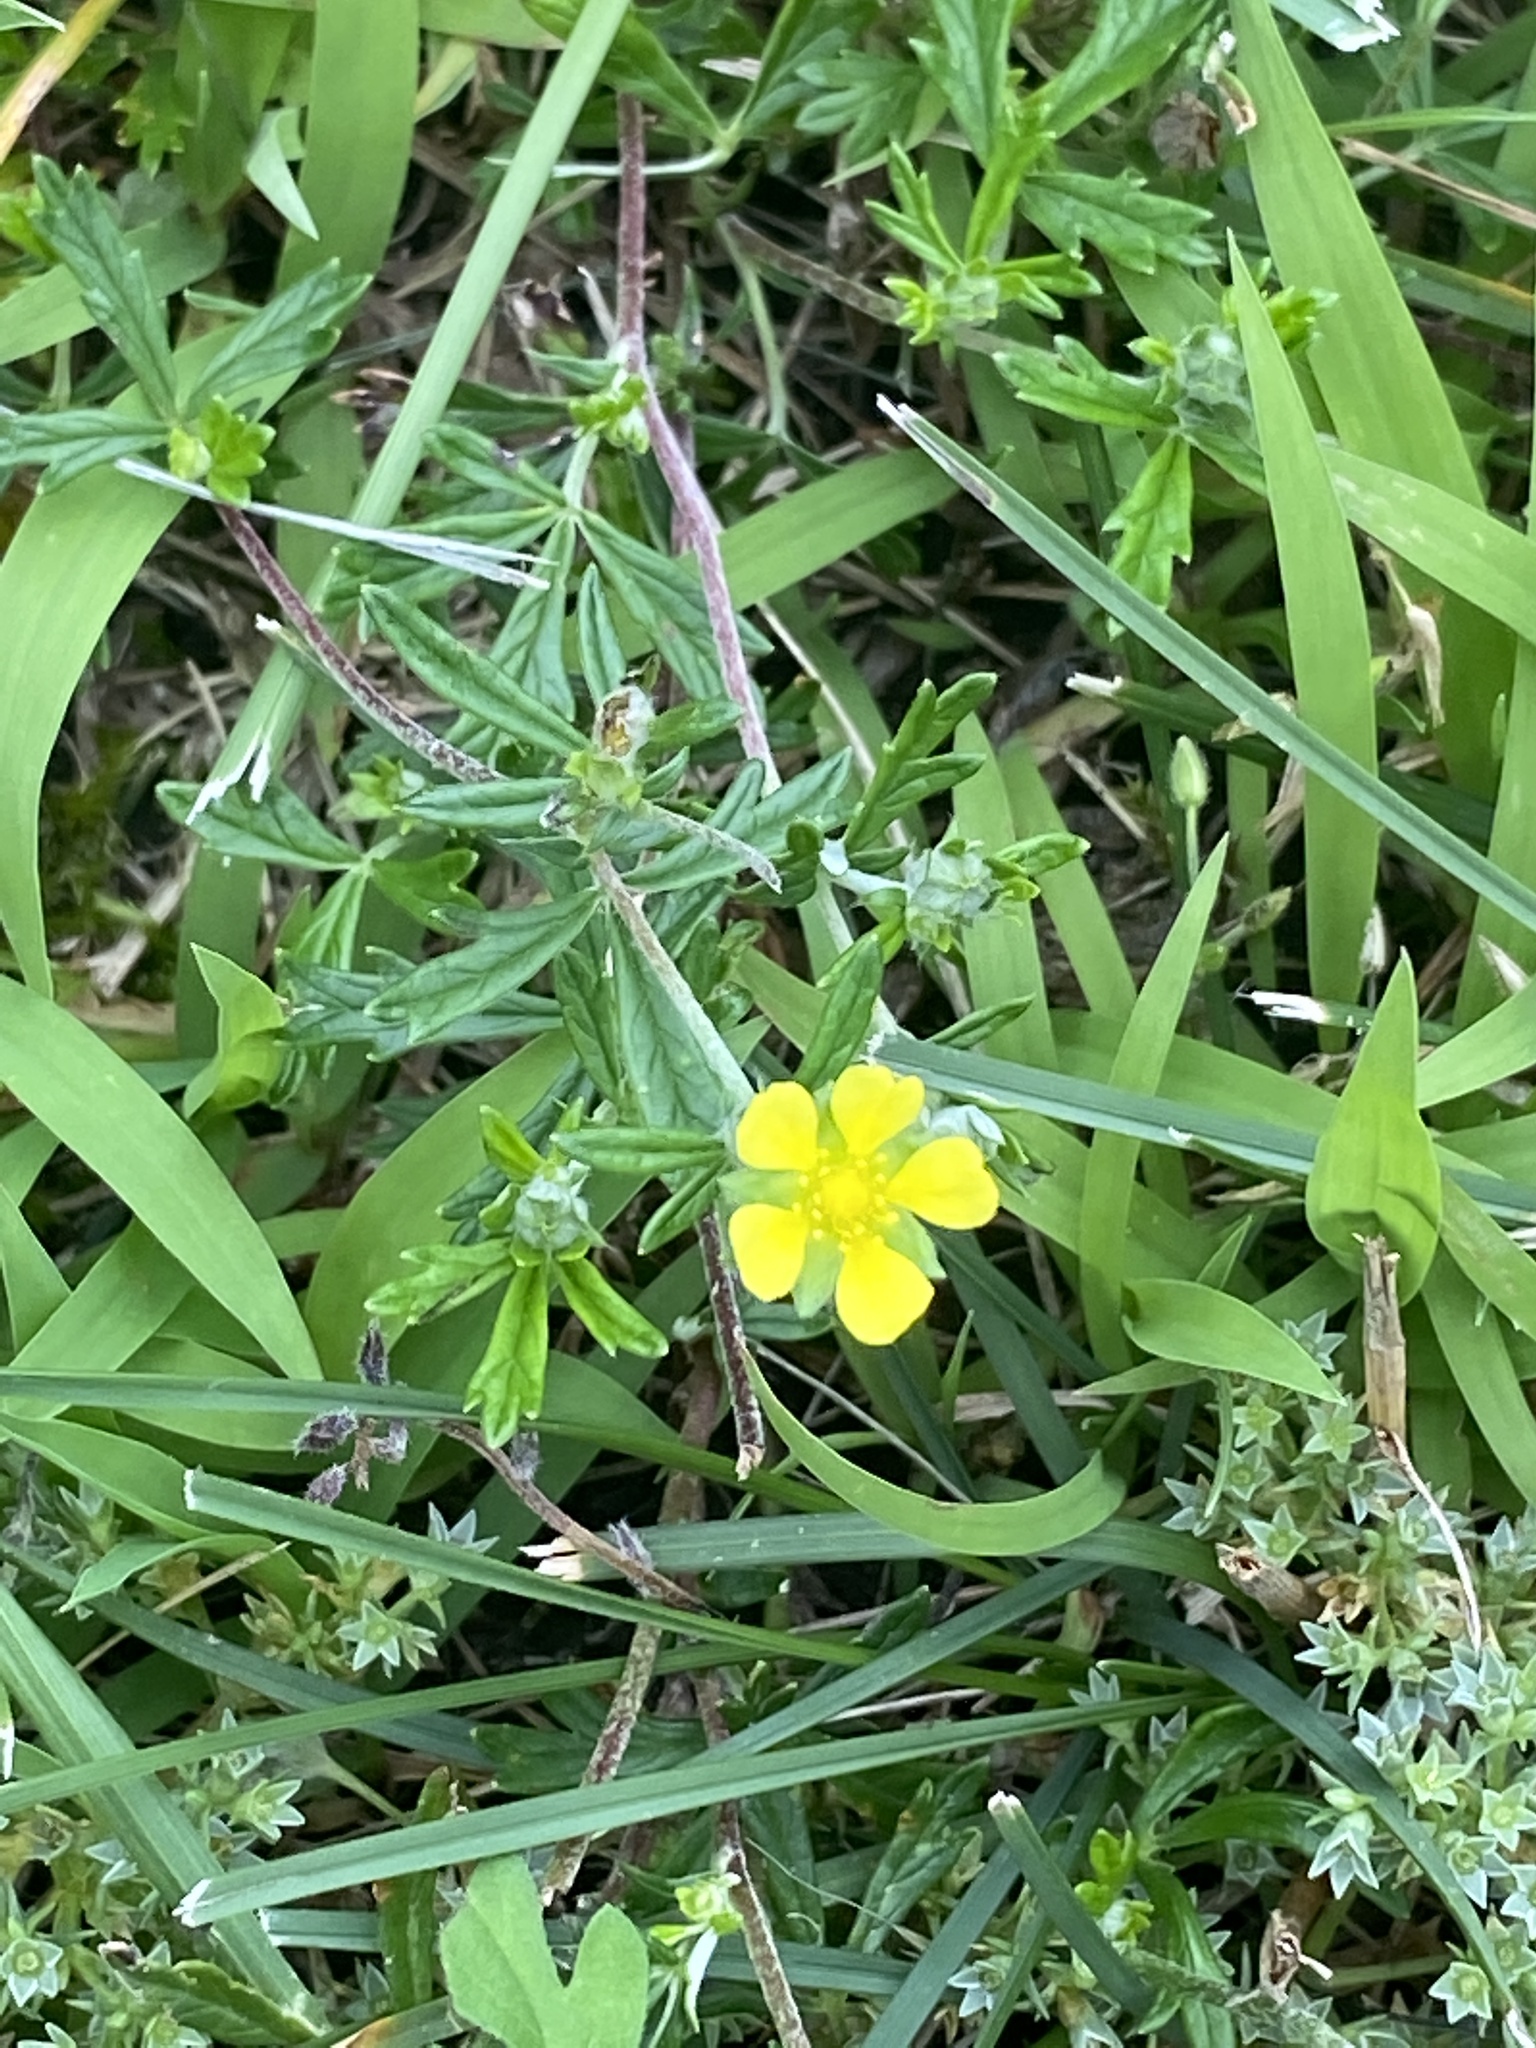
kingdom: Plantae
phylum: Tracheophyta
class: Magnoliopsida
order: Rosales
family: Rosaceae
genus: Potentilla
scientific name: Potentilla argentea
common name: Hoary cinquefoil
